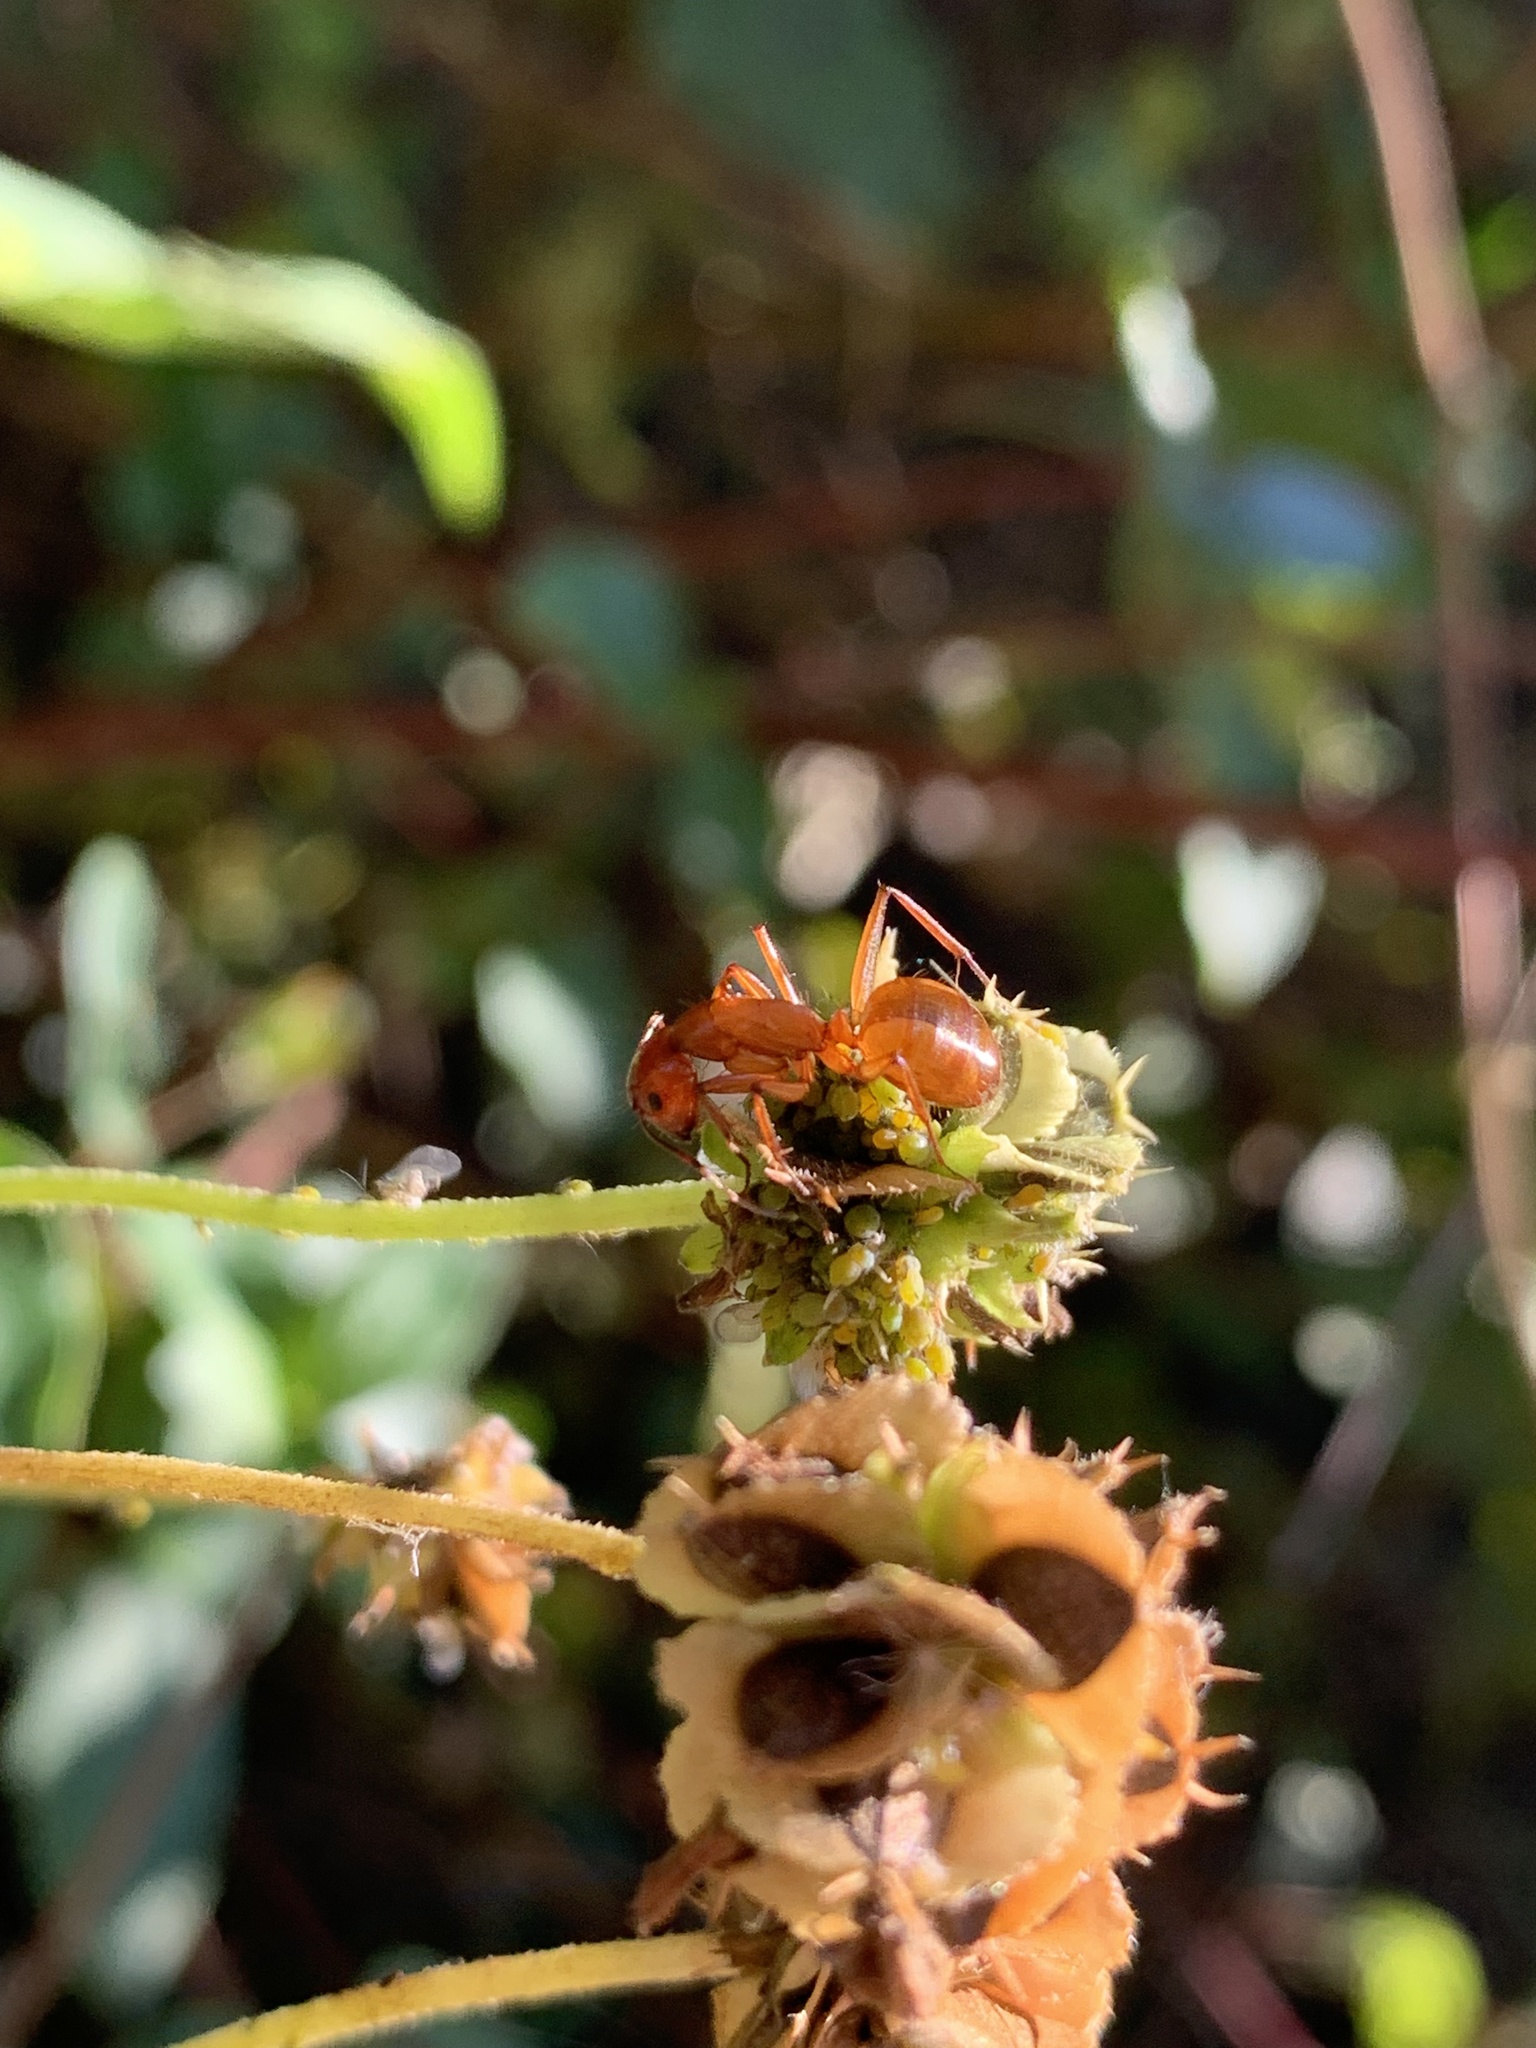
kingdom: Animalia
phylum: Arthropoda
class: Insecta
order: Hymenoptera
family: Formicidae
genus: Camponotus
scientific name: Camponotus castaneus
